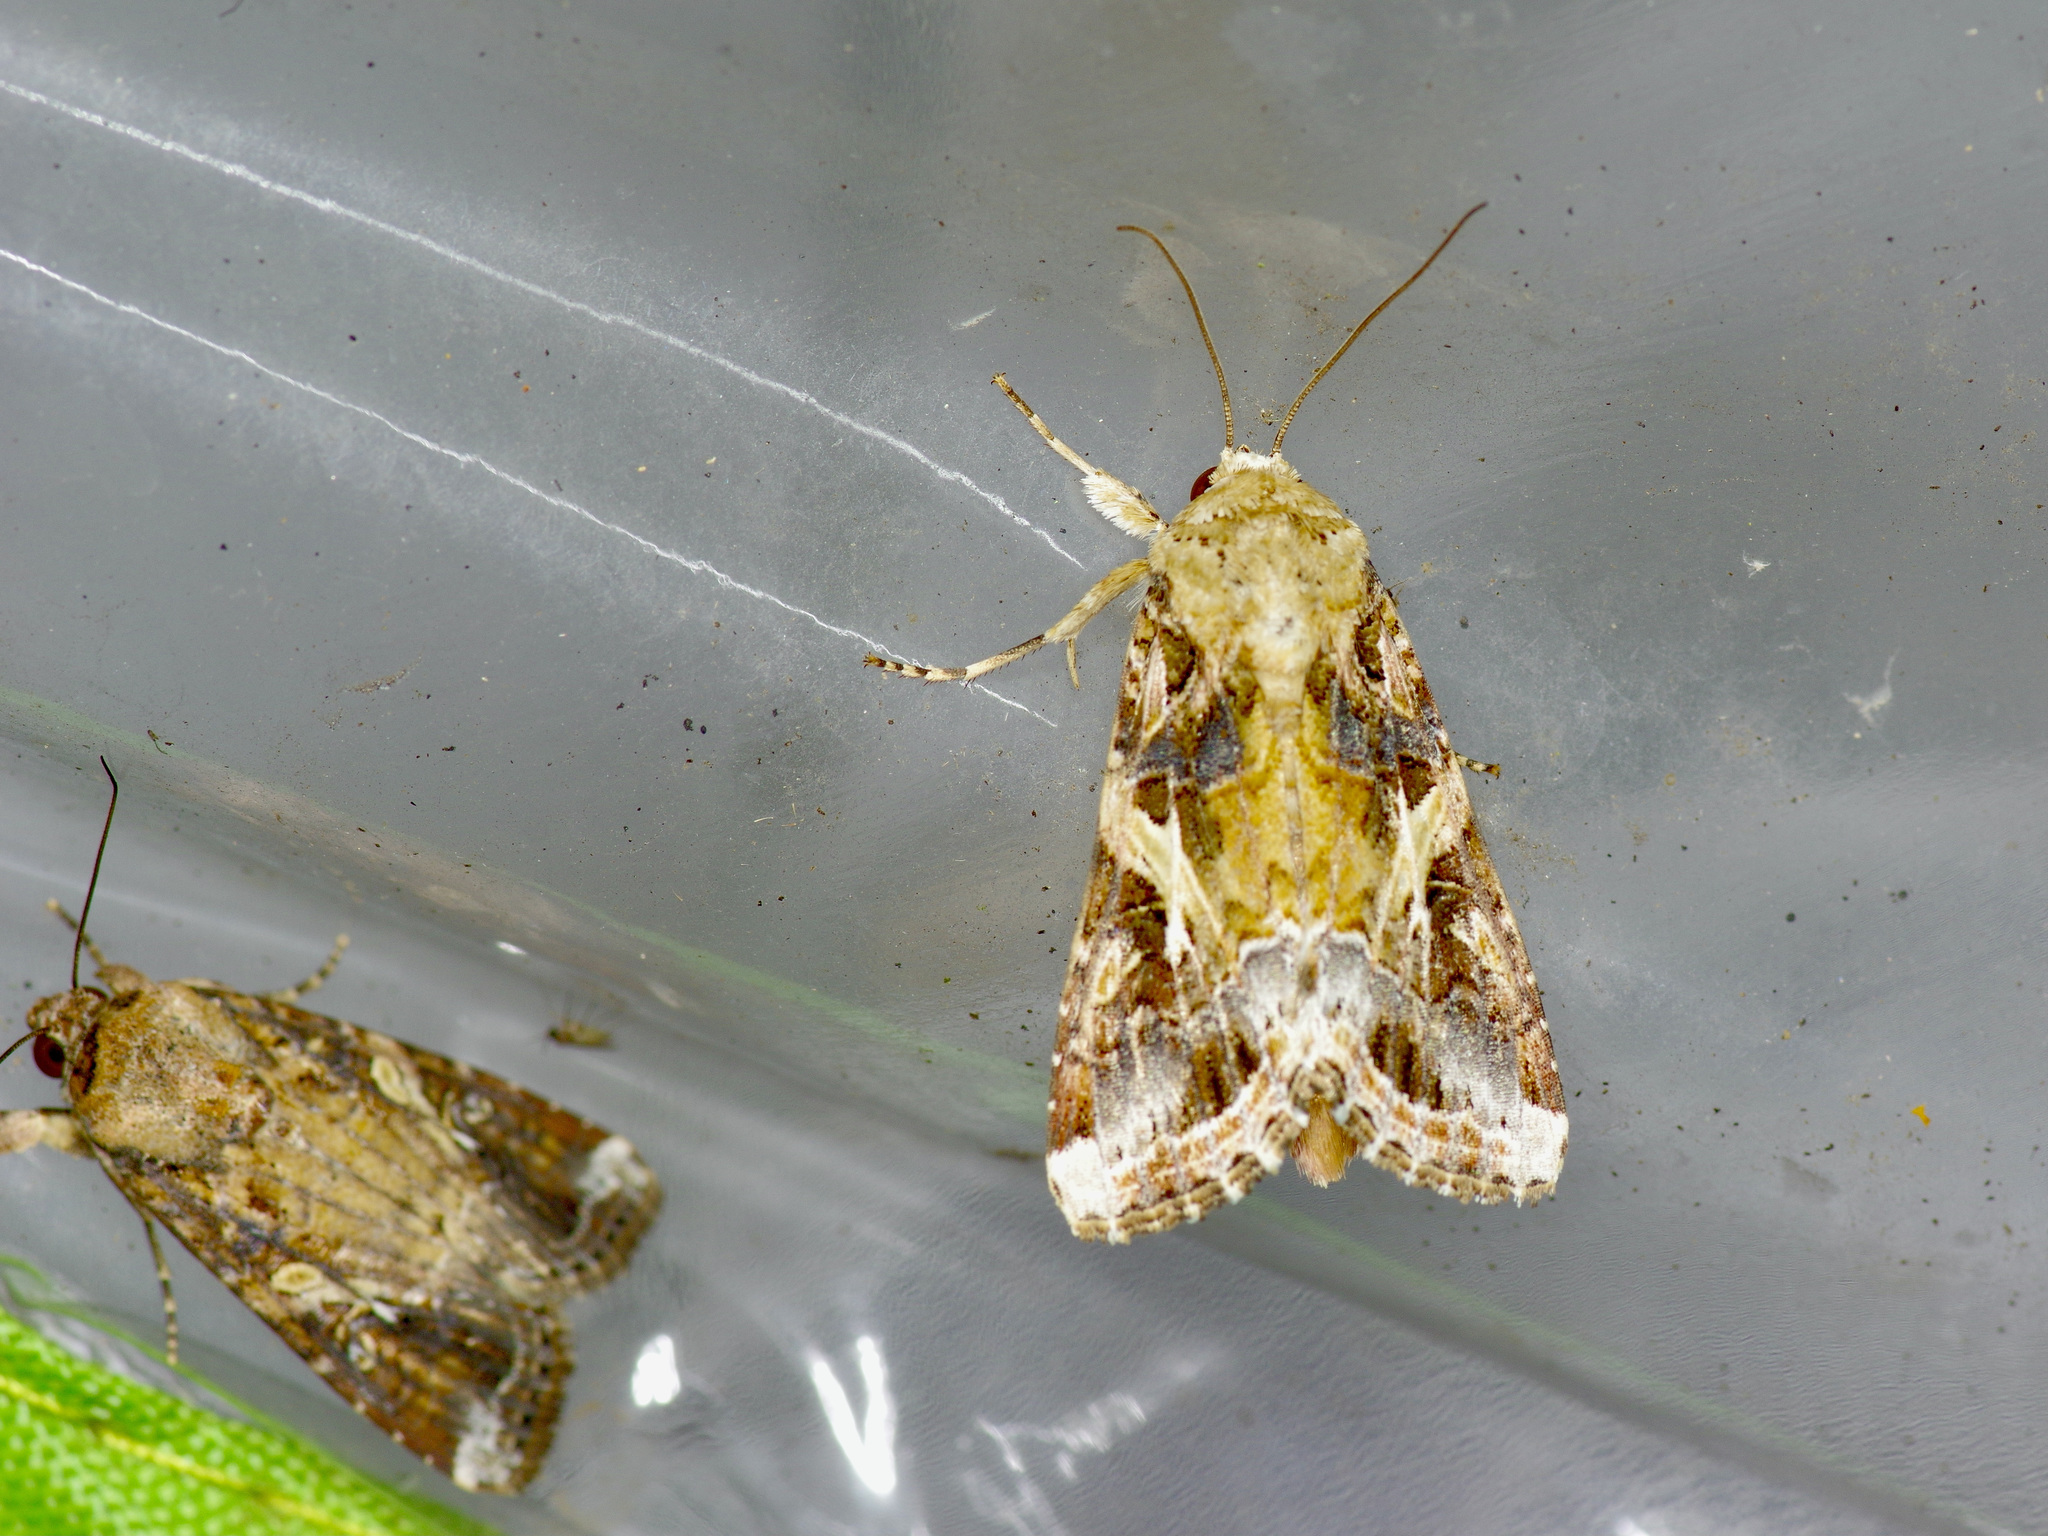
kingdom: Animalia
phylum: Arthropoda
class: Insecta
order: Lepidoptera
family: Noctuidae
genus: Spodoptera
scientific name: Spodoptera ornithogalli
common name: Yellow-striped armyworm
